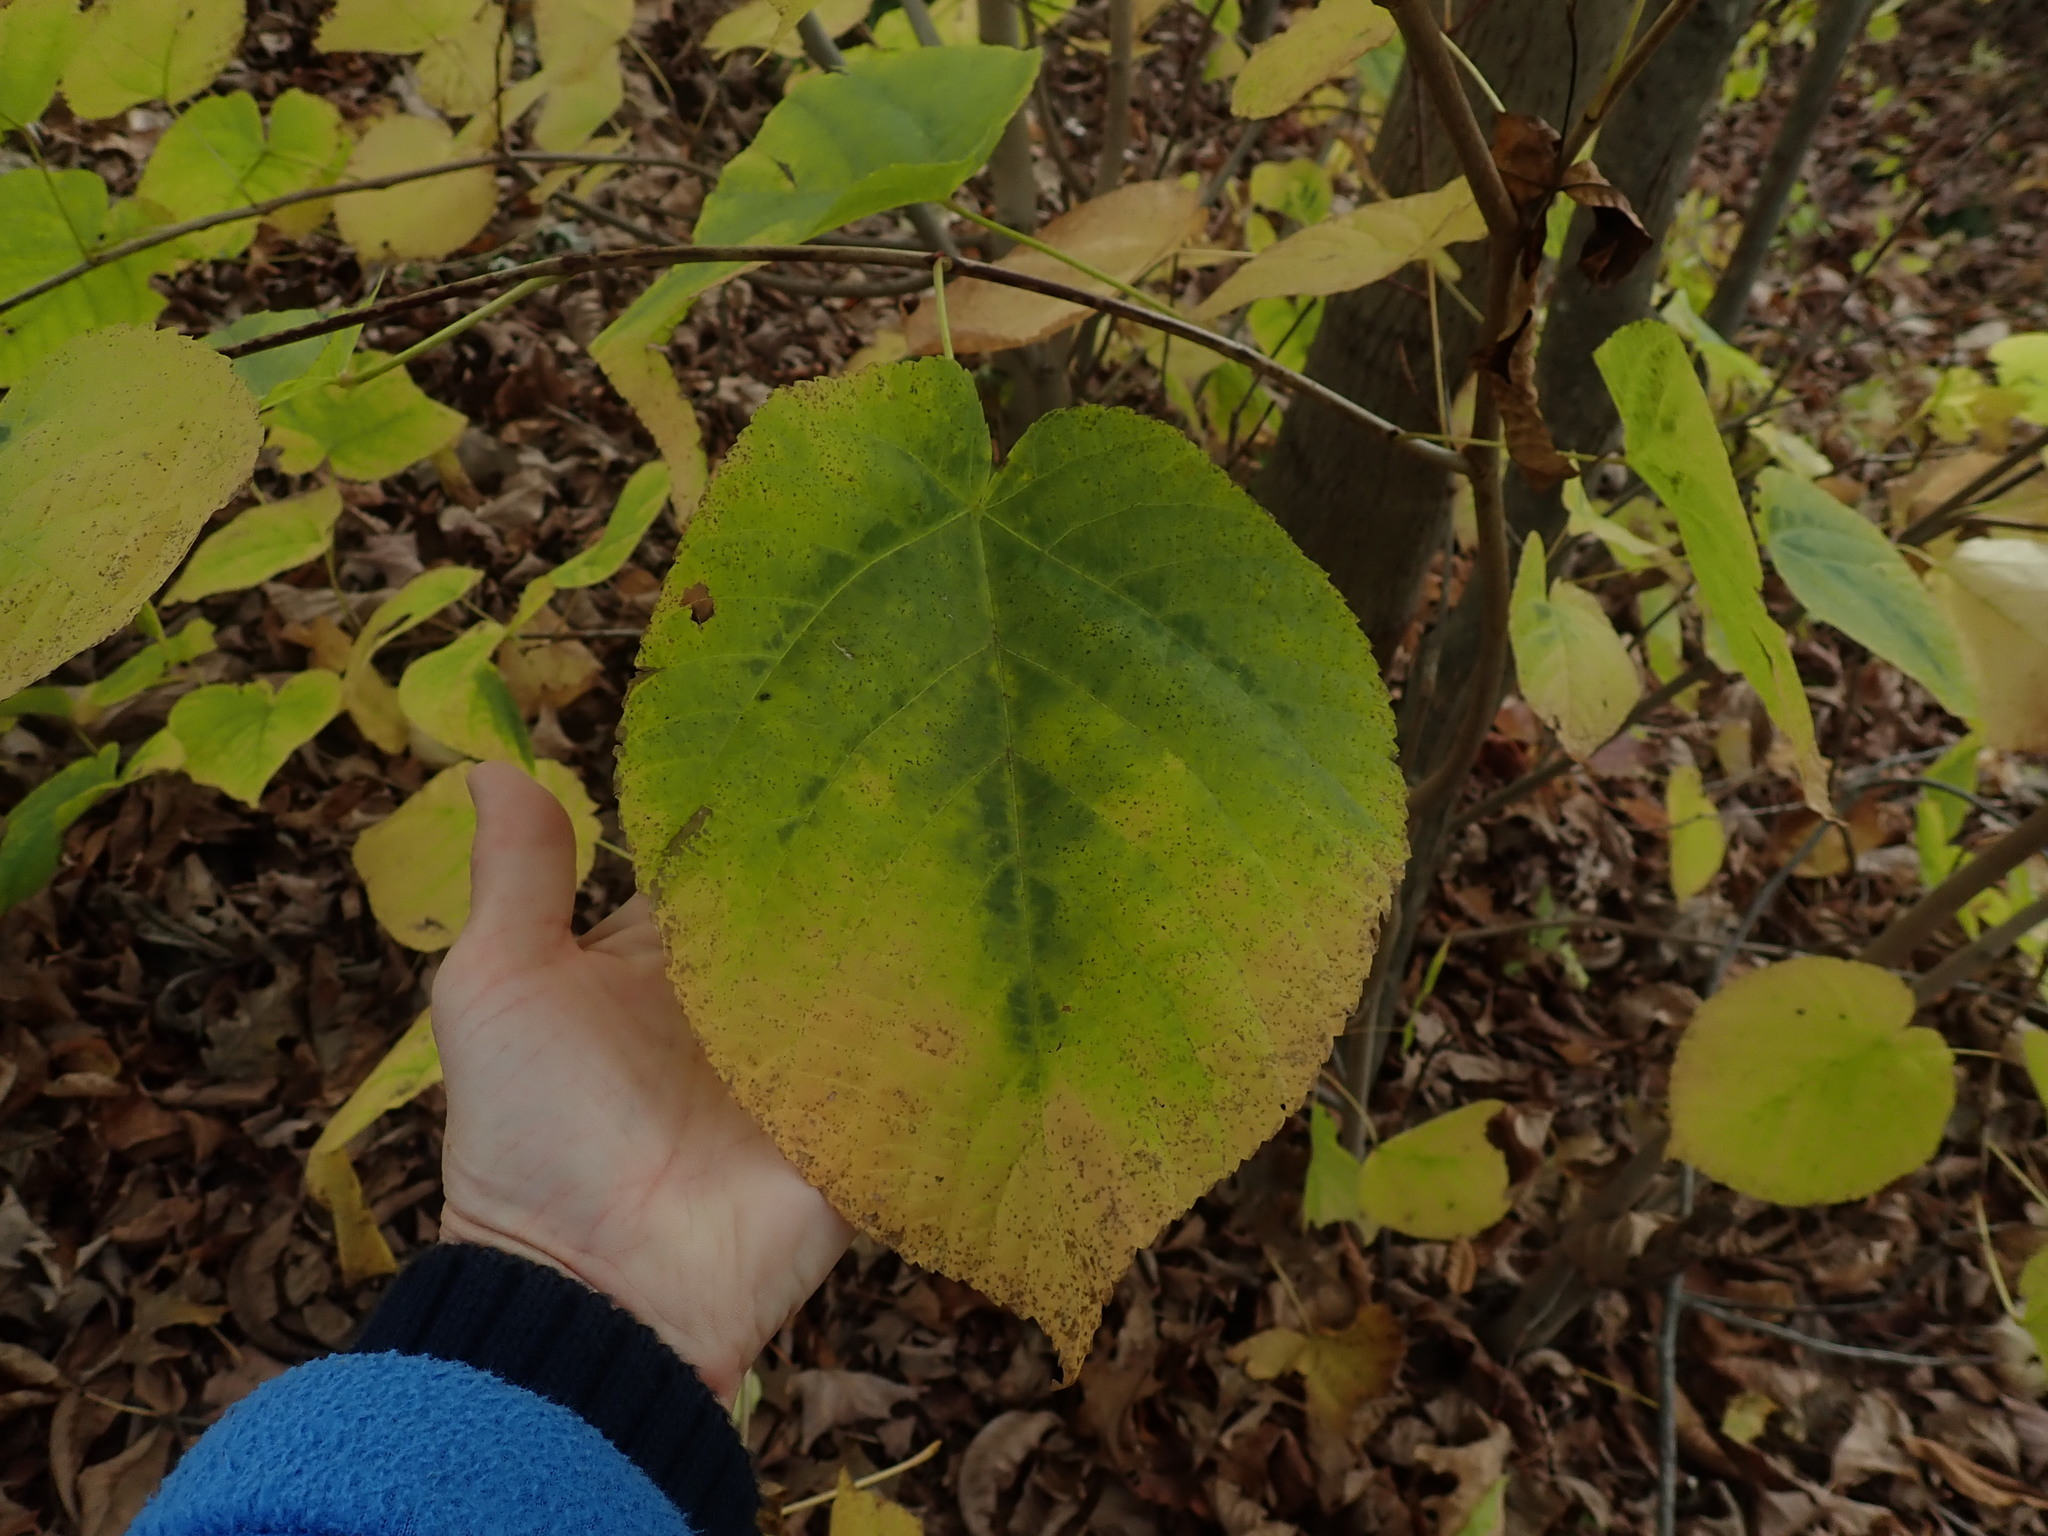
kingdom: Plantae
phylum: Tracheophyta
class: Magnoliopsida
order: Malvales
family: Malvaceae
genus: Tilia
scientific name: Tilia americana
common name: Basswood
